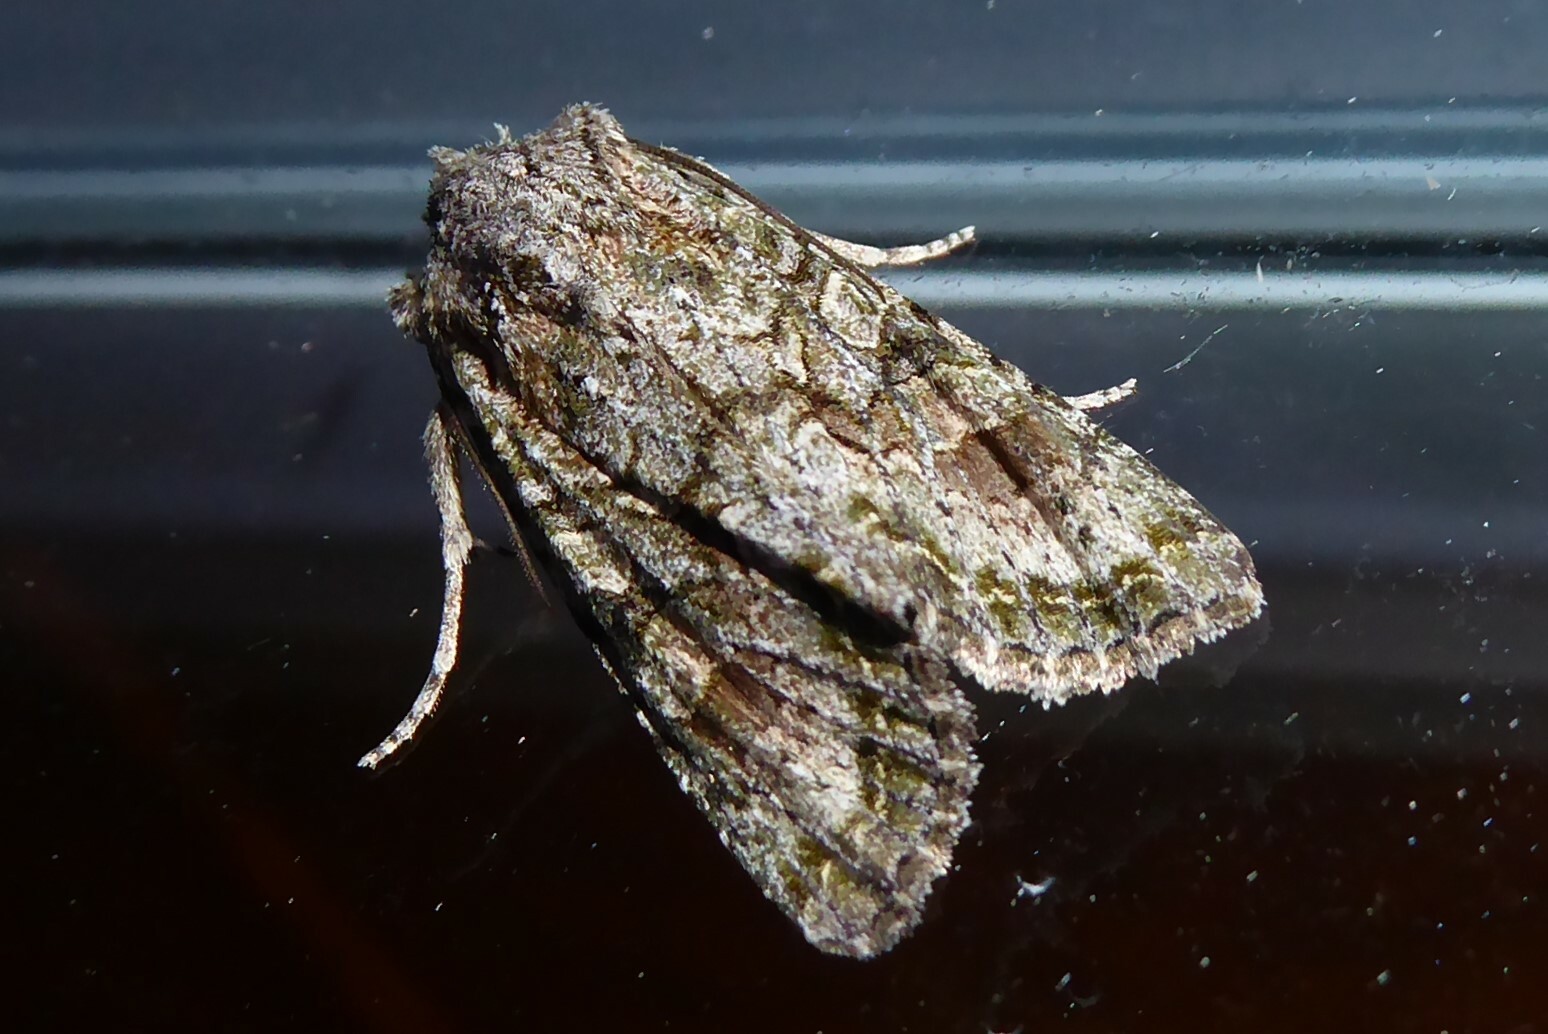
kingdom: Animalia
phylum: Arthropoda
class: Insecta
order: Lepidoptera
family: Noctuidae
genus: Ichneutica
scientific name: Ichneutica mutans
